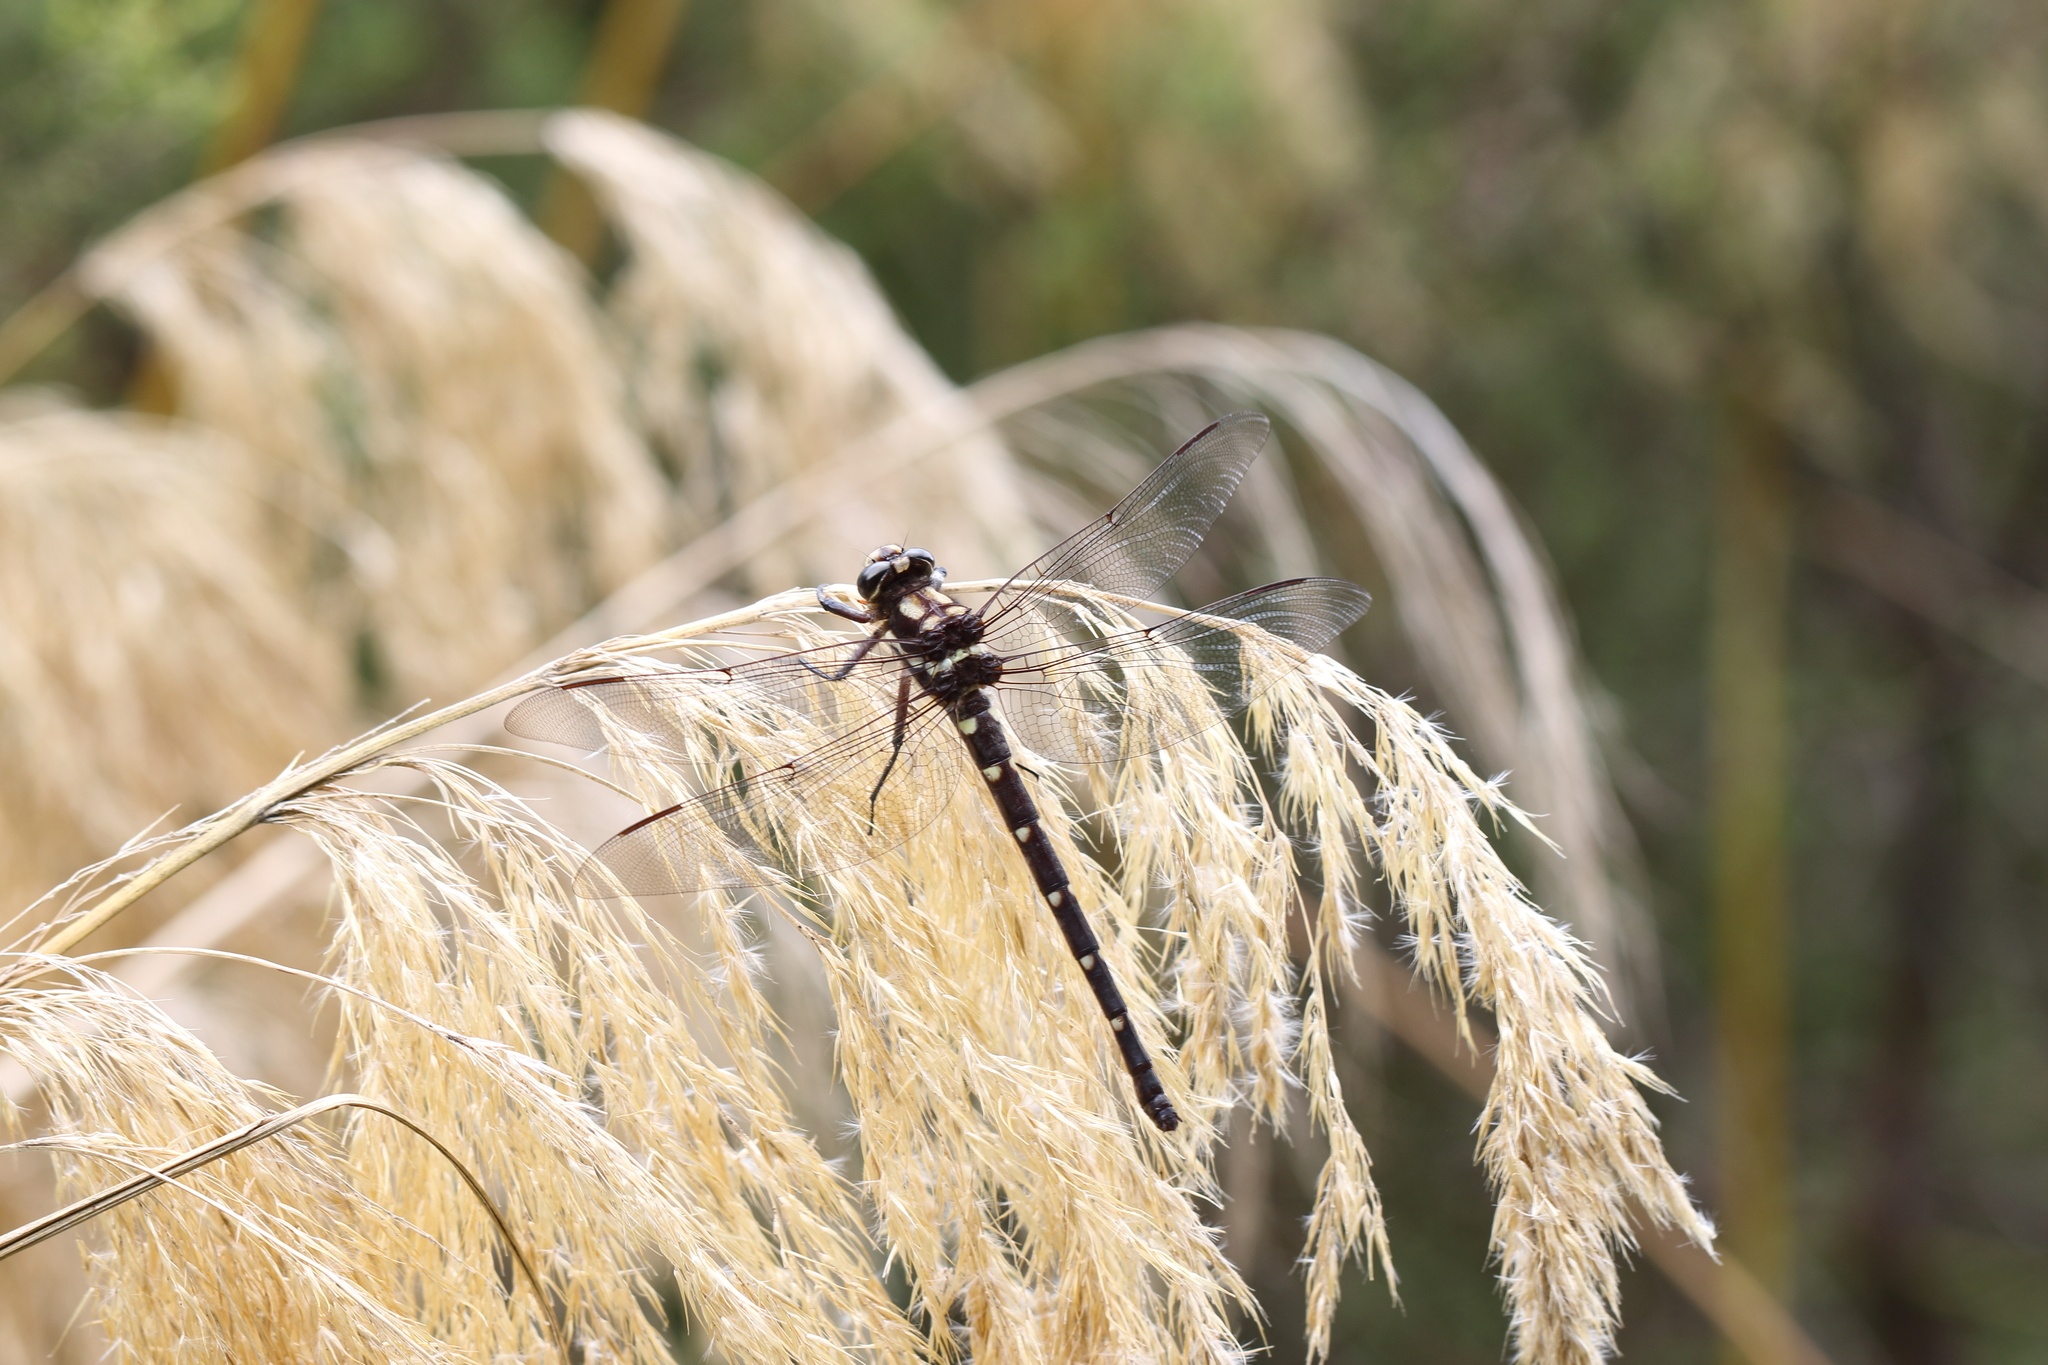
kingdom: Animalia
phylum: Arthropoda
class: Insecta
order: Odonata
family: Petaluridae
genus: Uropetala
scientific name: Uropetala carovei
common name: Bush giant dragonfly
